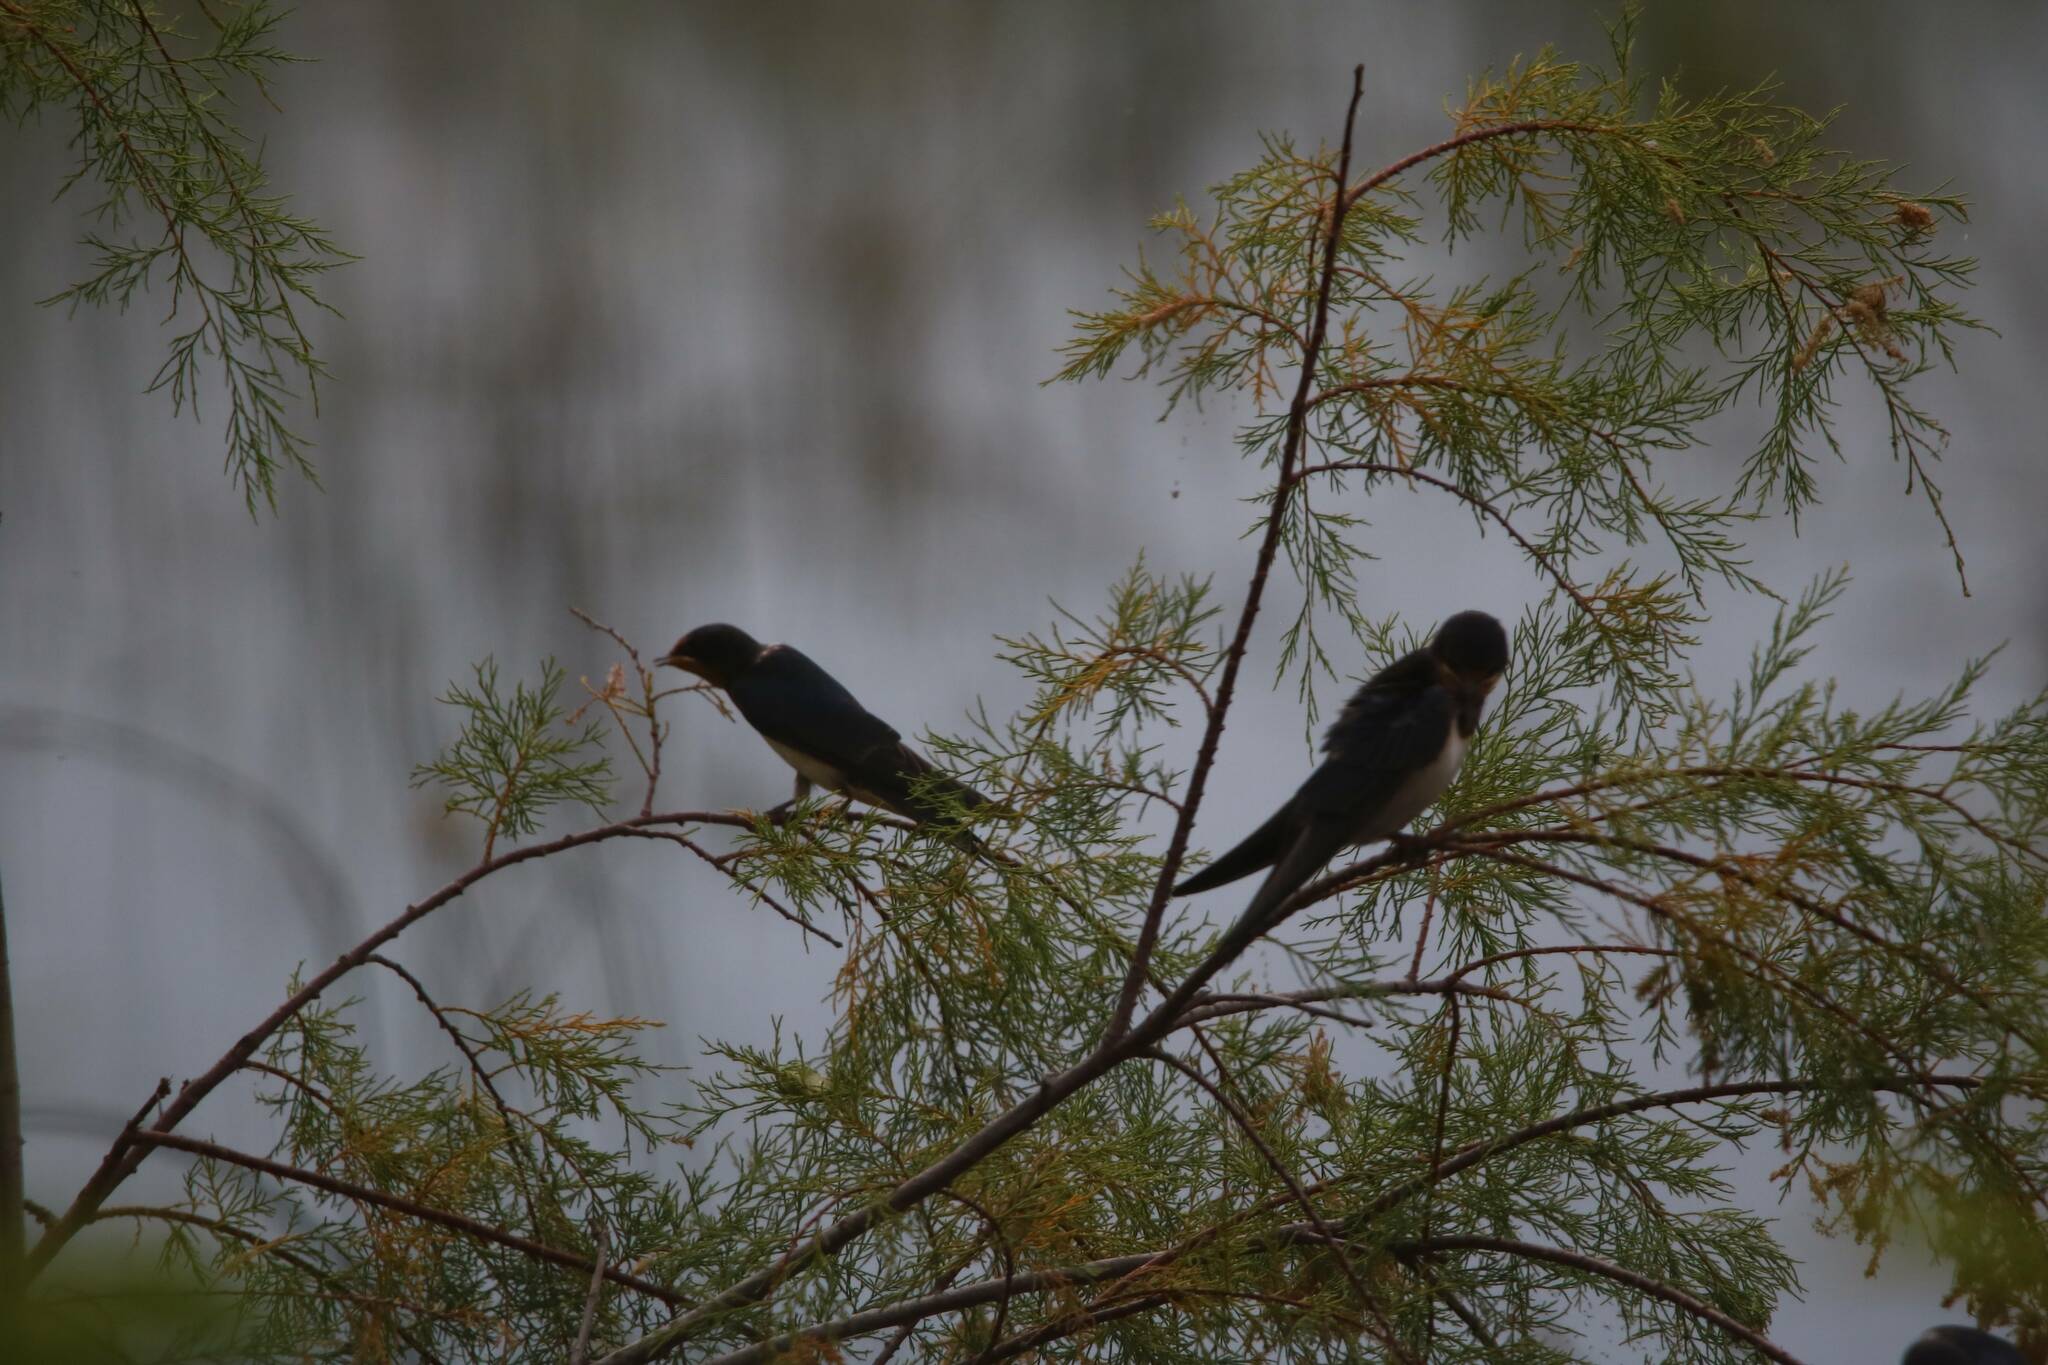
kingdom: Animalia
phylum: Chordata
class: Aves
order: Passeriformes
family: Hirundinidae
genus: Hirundo
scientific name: Hirundo rustica
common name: Barn swallow
